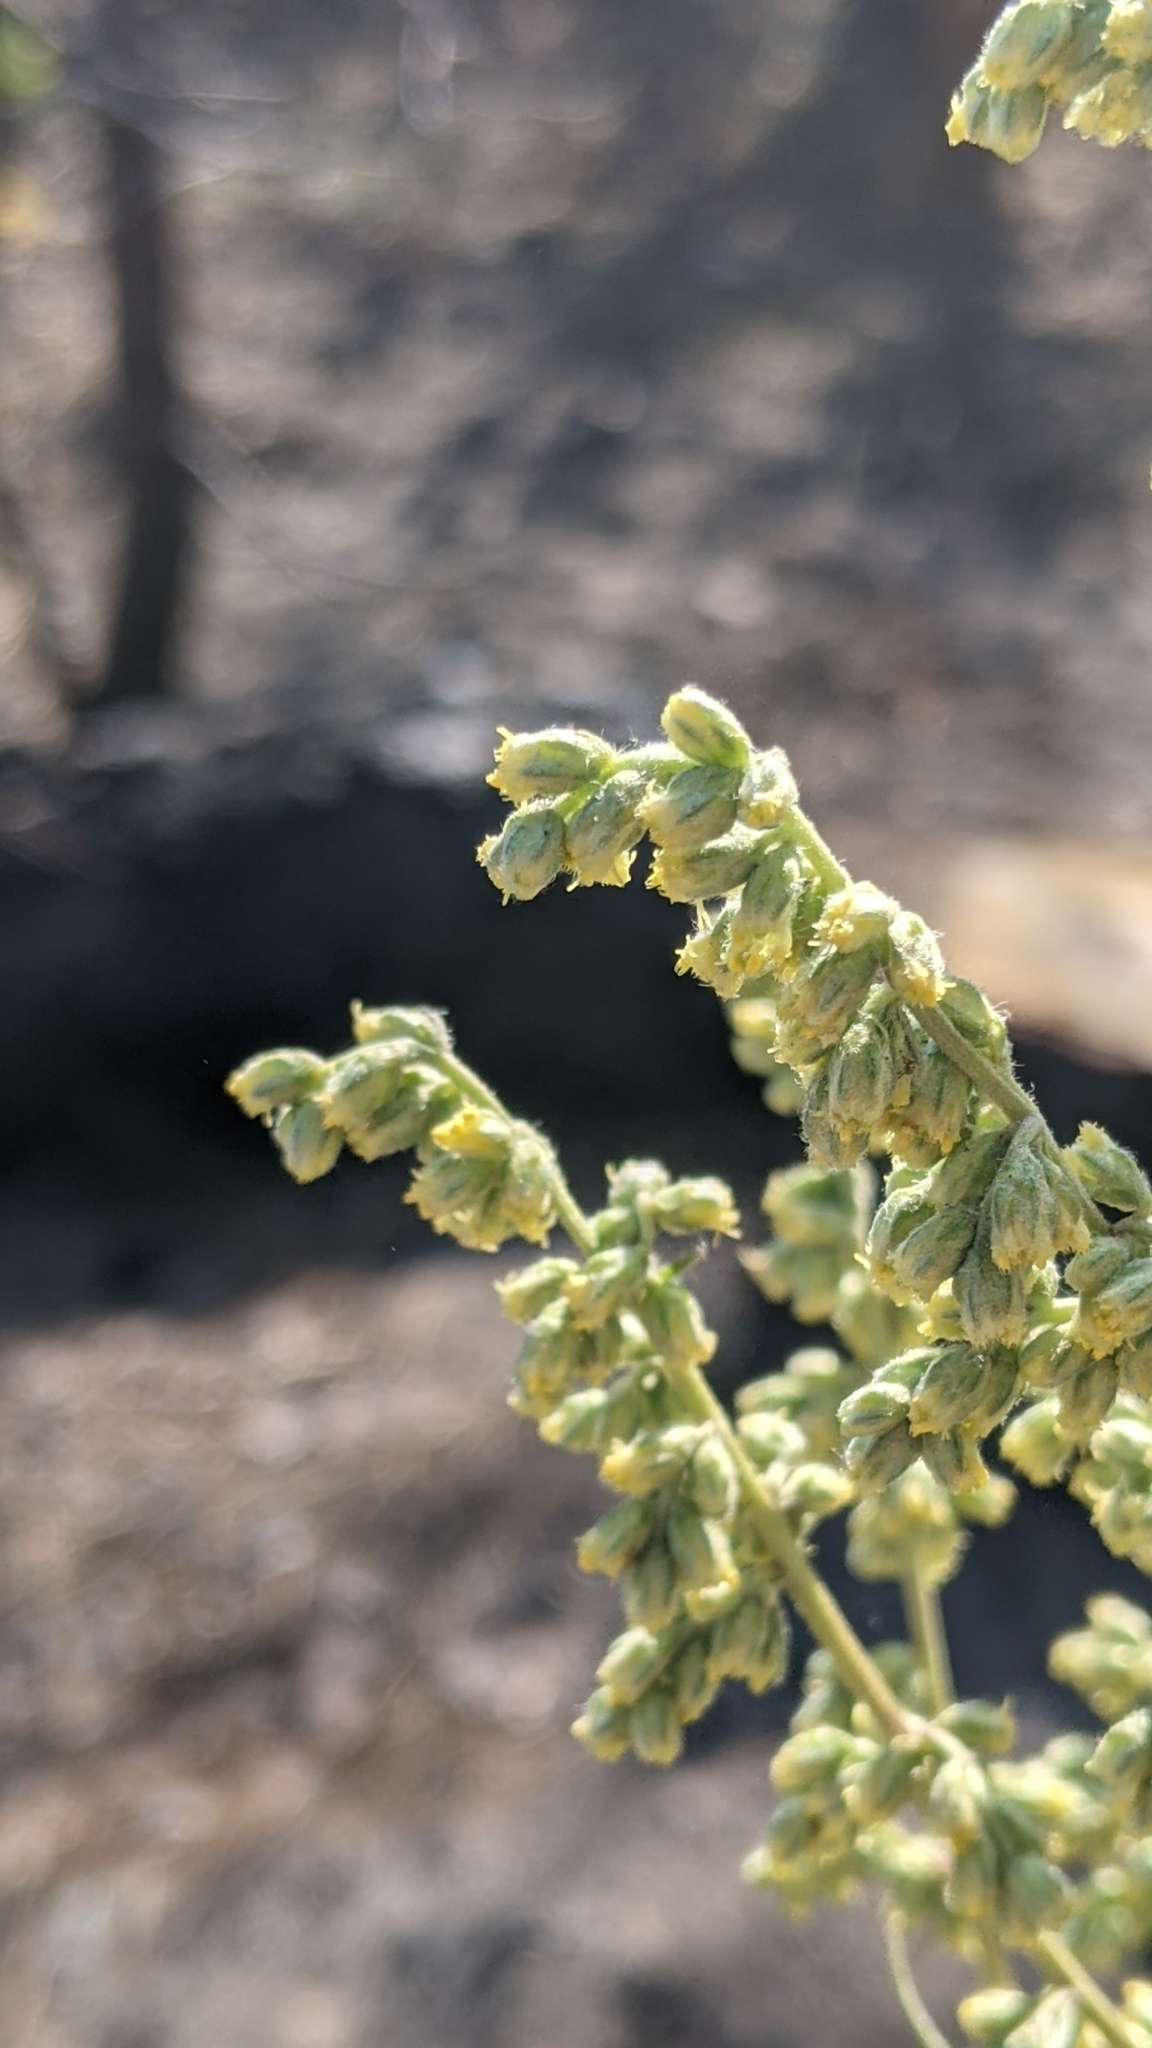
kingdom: Plantae
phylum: Tracheophyta
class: Magnoliopsida
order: Asterales
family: Asteraceae
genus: Artemisia
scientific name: Artemisia douglasiana
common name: Northwest mugwort
